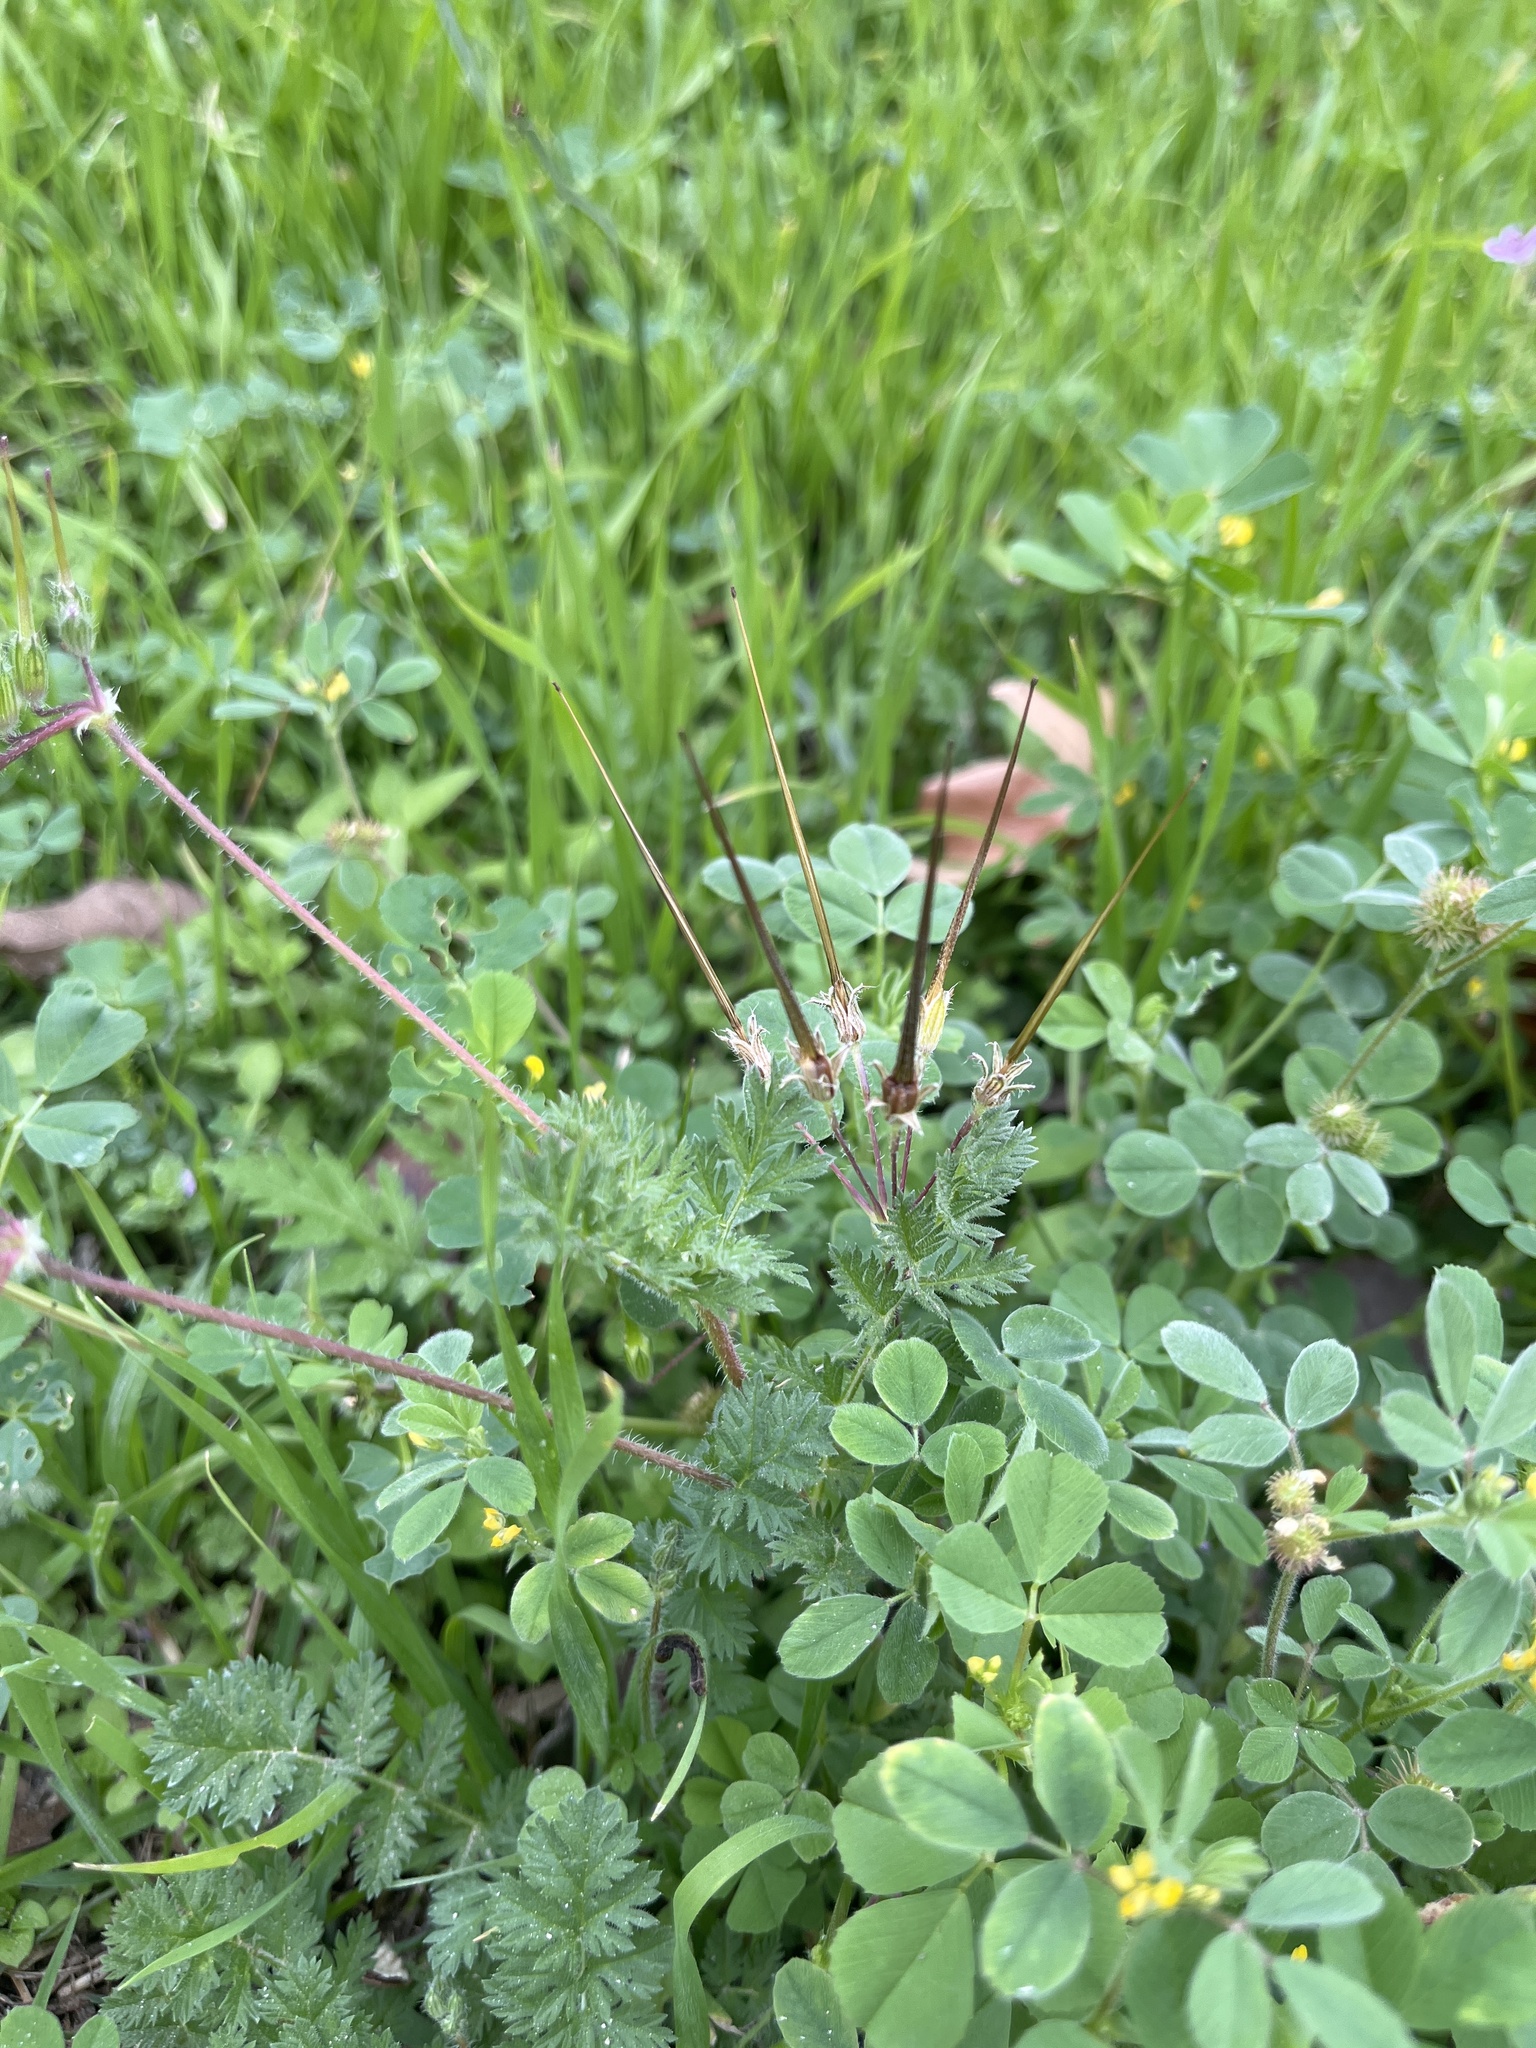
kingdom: Plantae
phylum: Tracheophyta
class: Magnoliopsida
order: Geraniales
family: Geraniaceae
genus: Erodium
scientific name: Erodium cicutarium
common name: Common stork's-bill
